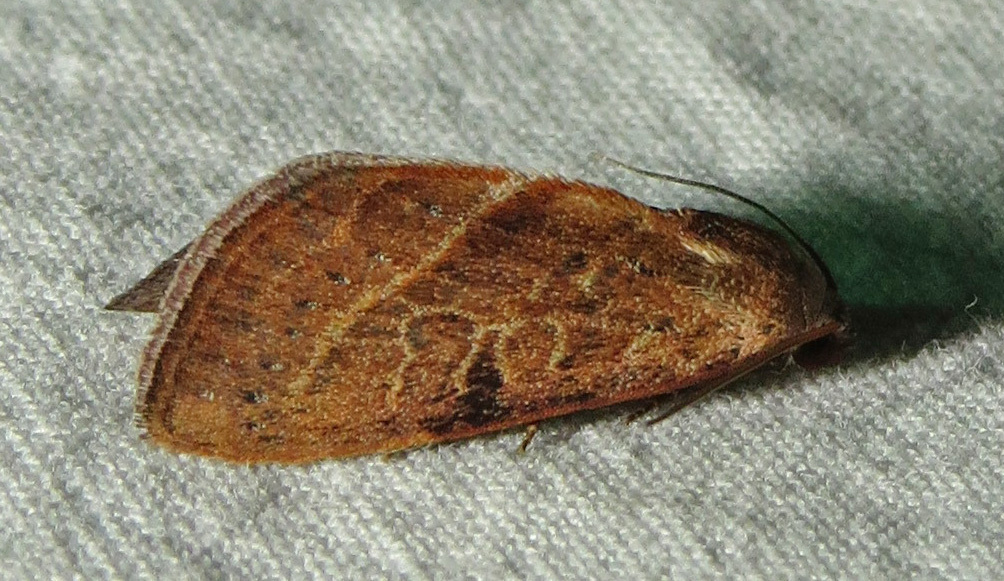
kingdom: Animalia
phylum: Arthropoda
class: Insecta
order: Lepidoptera
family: Noctuidae
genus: Galgula
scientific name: Galgula partita
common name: Wedgeling
